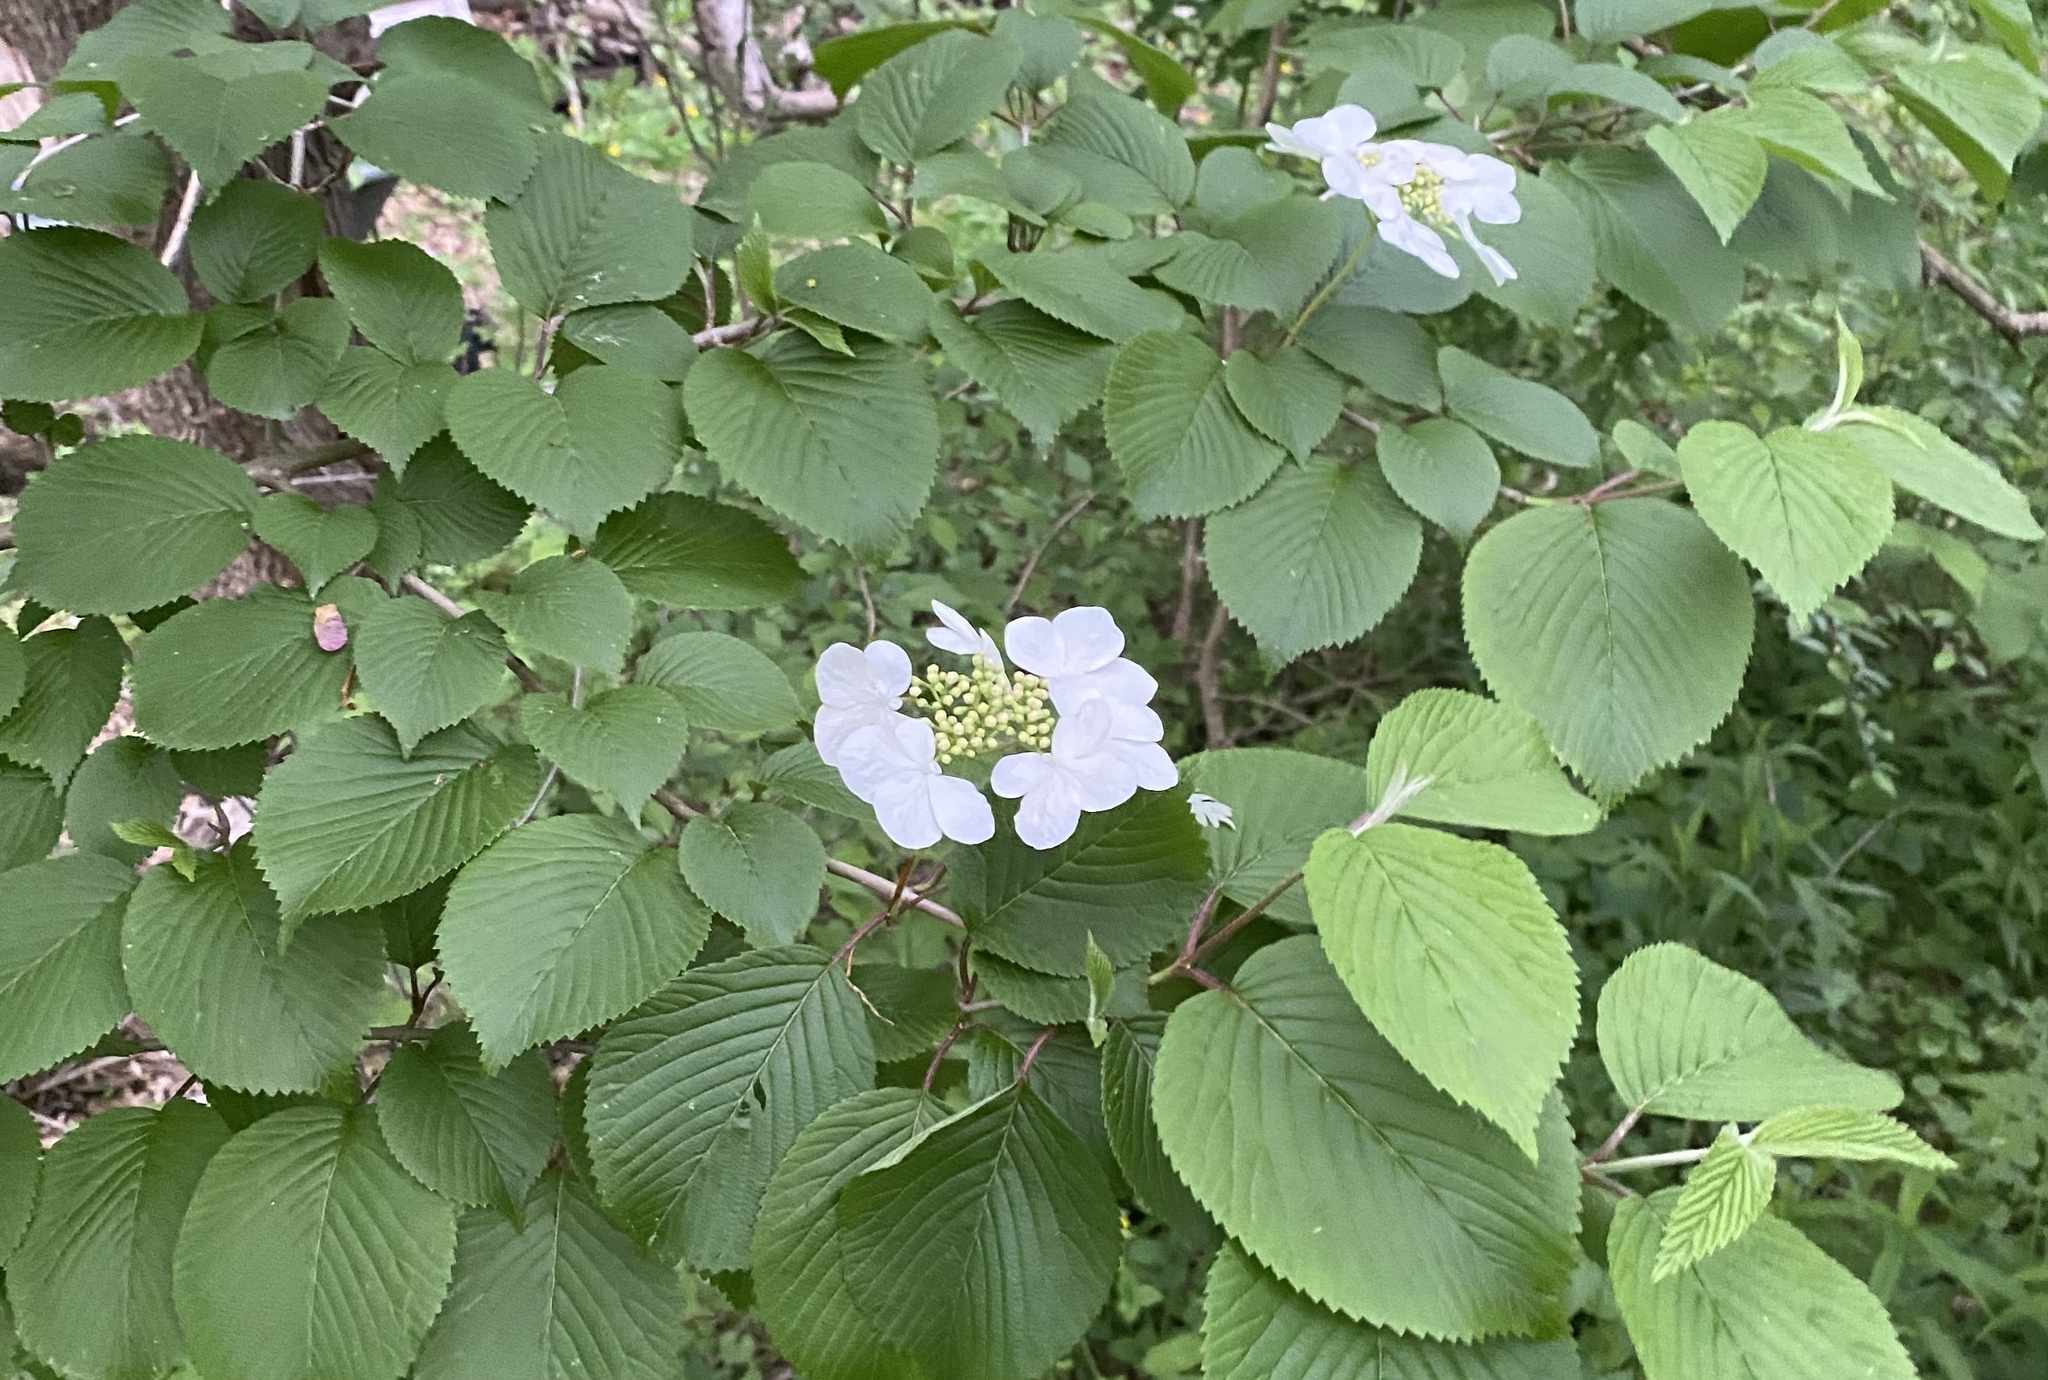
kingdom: Plantae
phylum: Tracheophyta
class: Magnoliopsida
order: Dipsacales
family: Viburnaceae
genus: Viburnum
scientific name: Viburnum plicatum
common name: Japanese snowball
